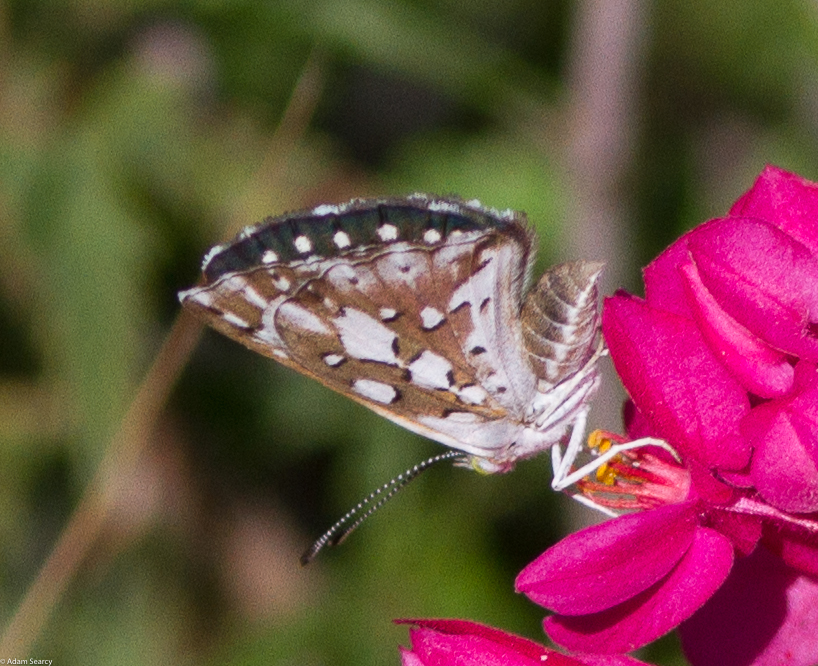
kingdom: Animalia
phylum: Arthropoda
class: Insecta
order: Lepidoptera
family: Riodinidae
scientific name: Riodinidae
